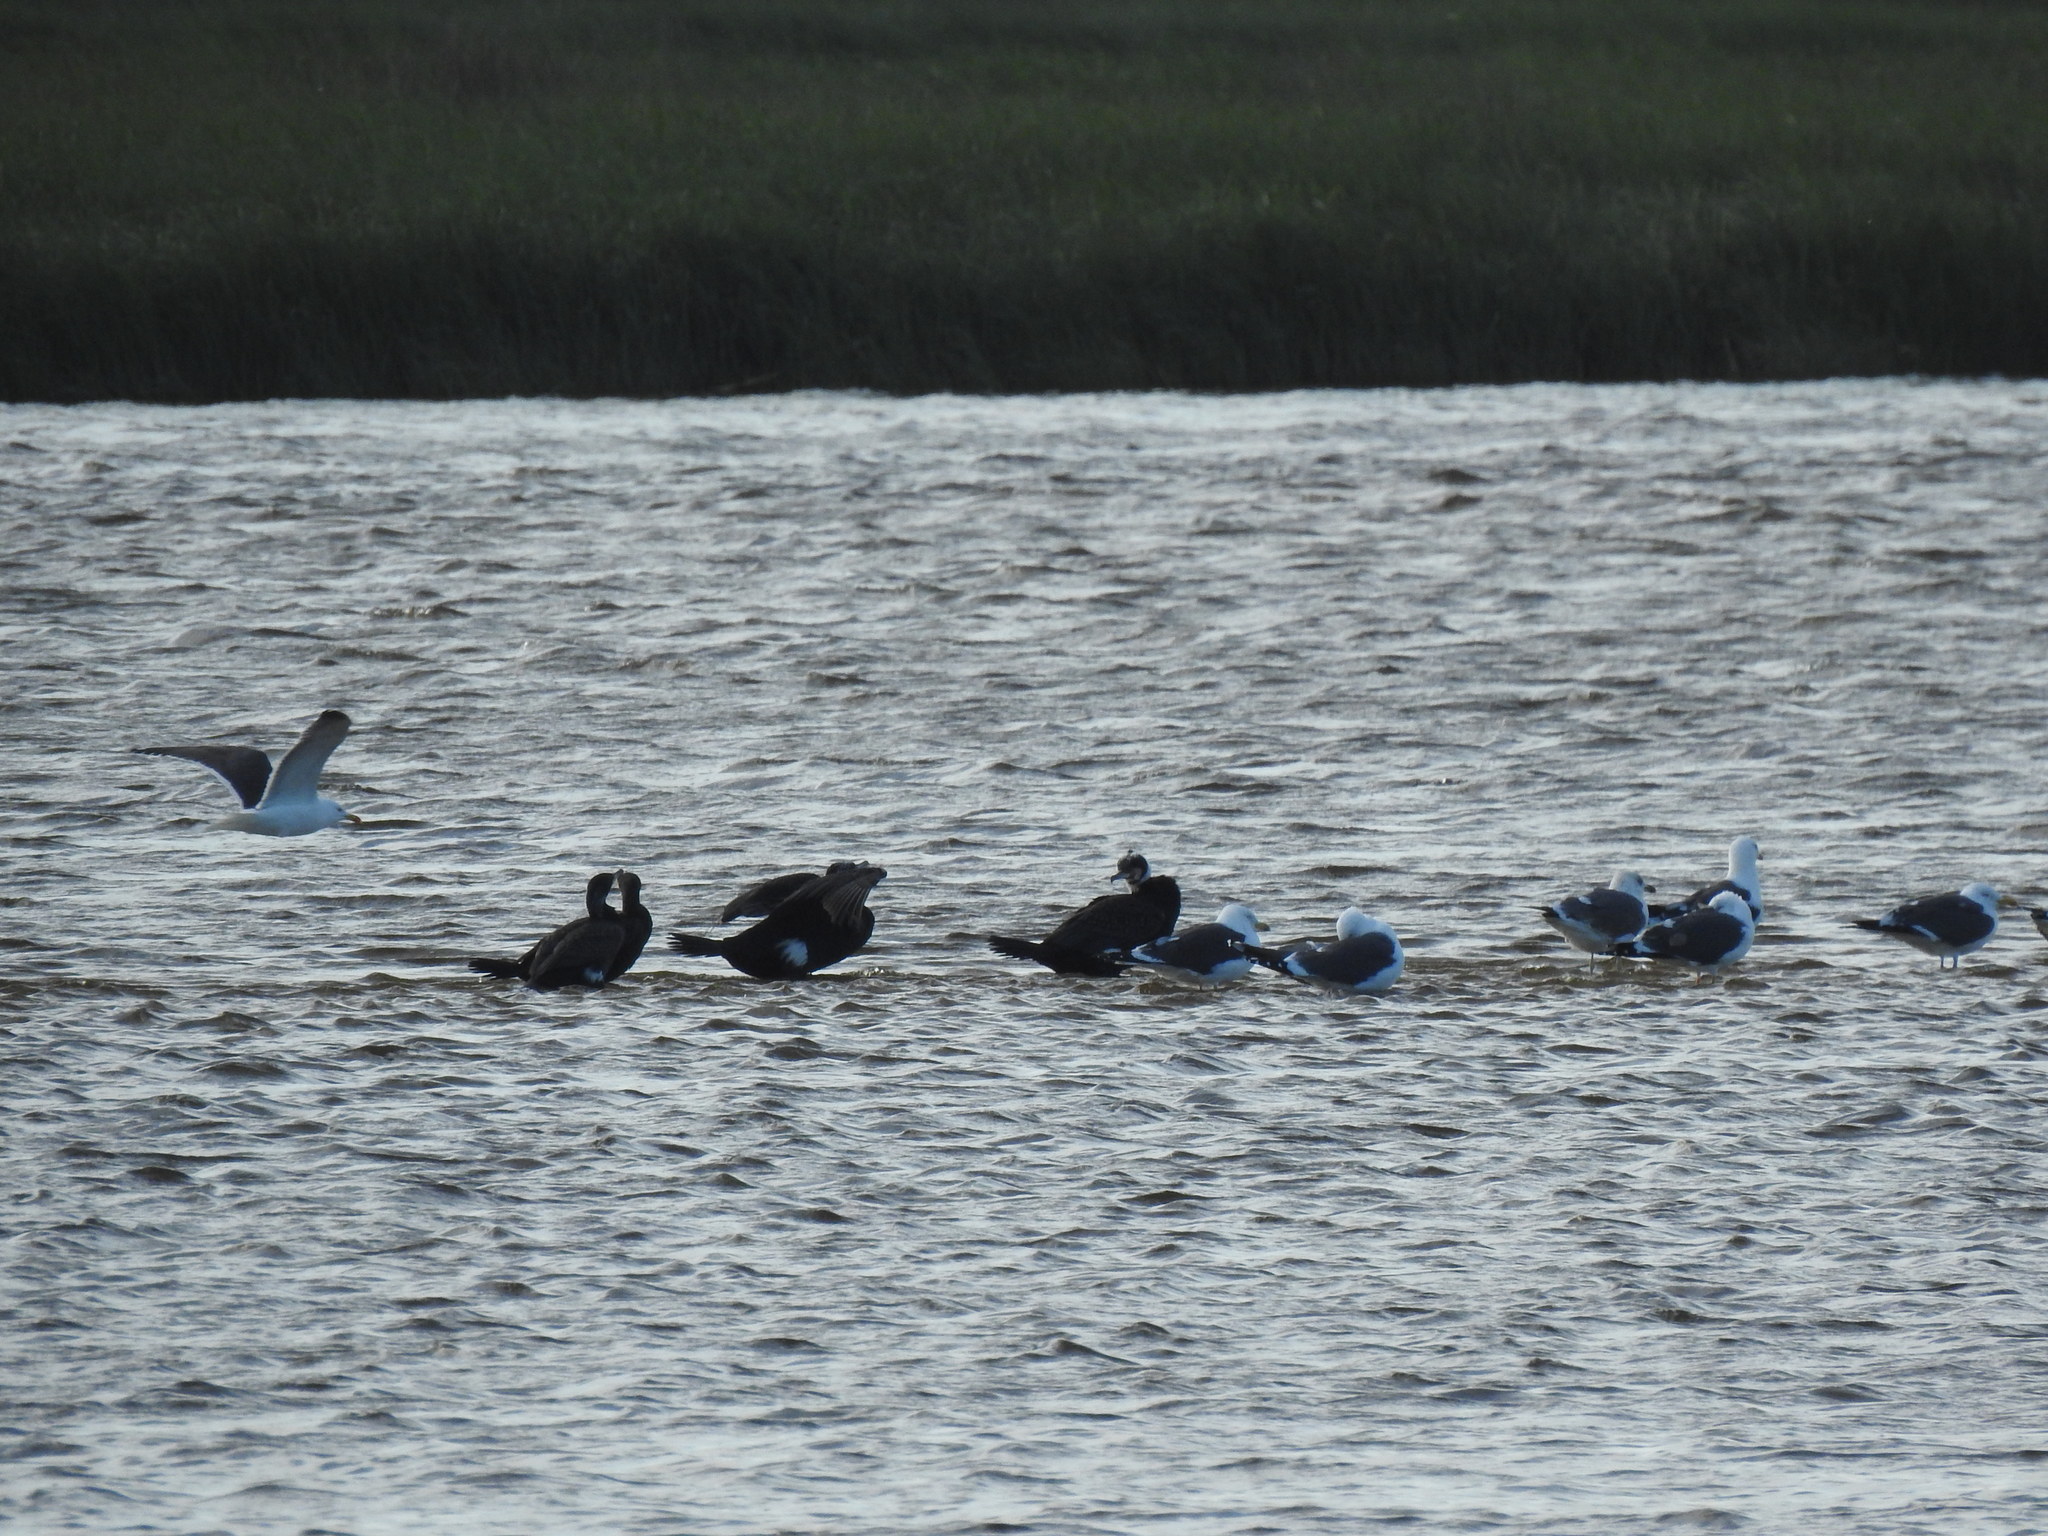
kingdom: Animalia
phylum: Chordata
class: Aves
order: Suliformes
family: Phalacrocoracidae
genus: Phalacrocorax
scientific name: Phalacrocorax carbo
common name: Great cormorant
